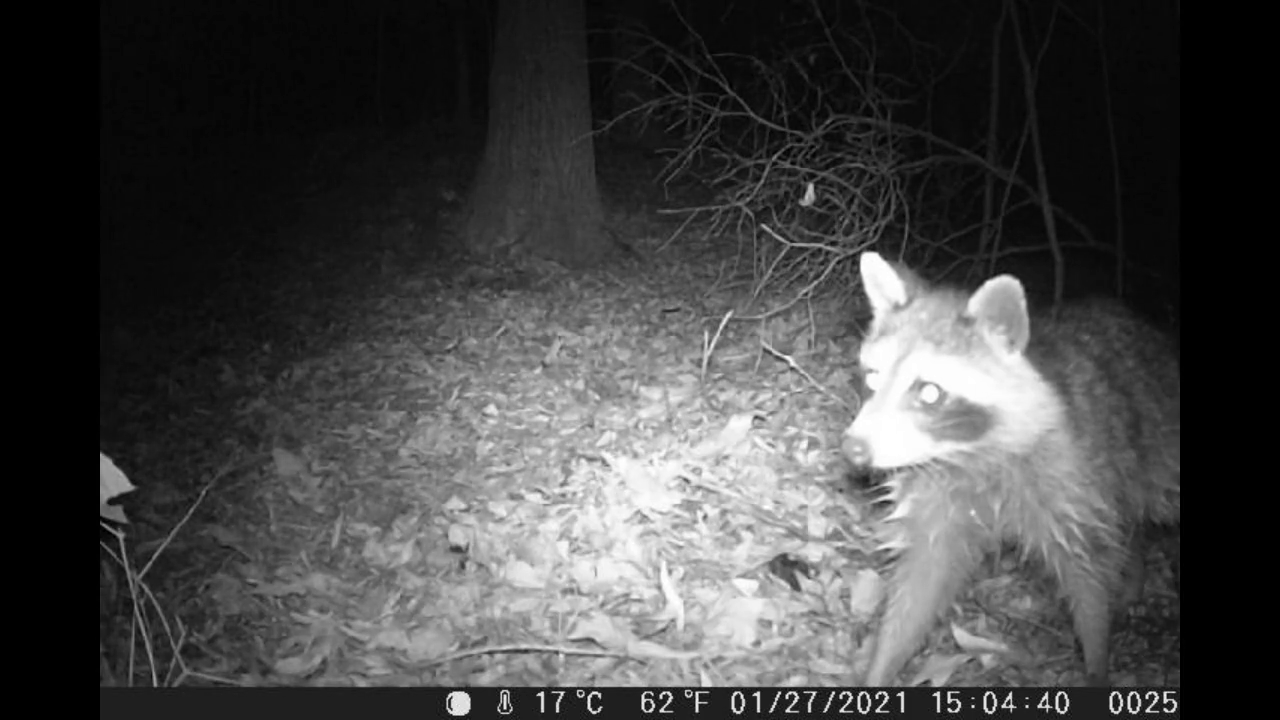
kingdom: Animalia
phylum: Chordata
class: Mammalia
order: Carnivora
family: Procyonidae
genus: Procyon
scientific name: Procyon lotor
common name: Raccoon
